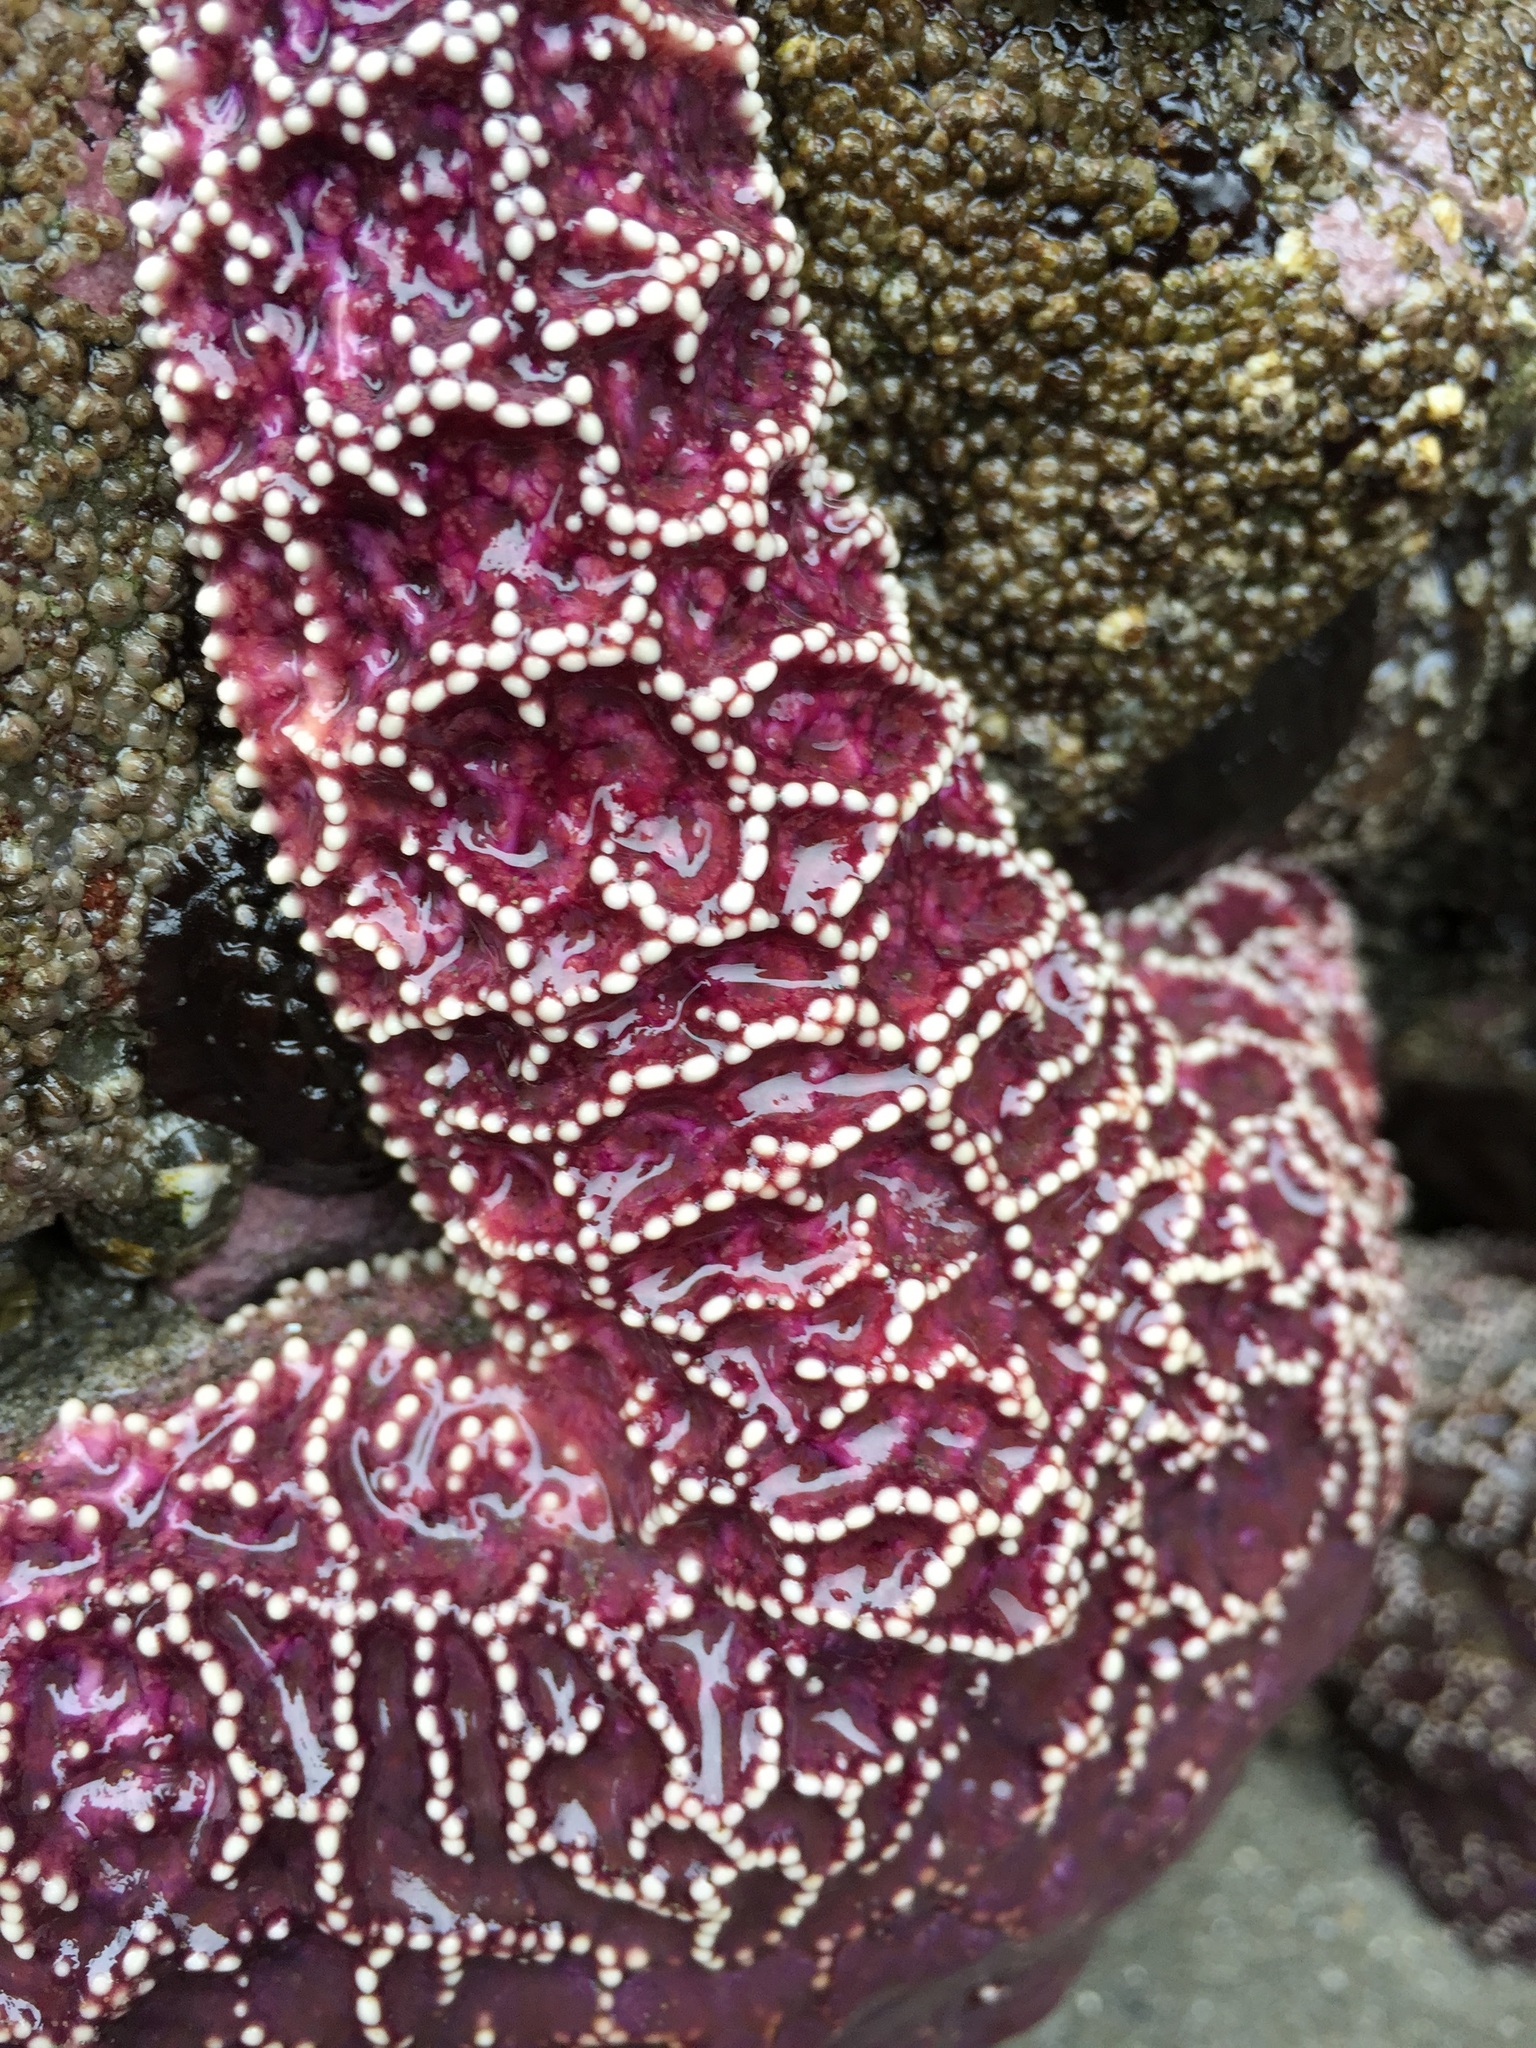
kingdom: Animalia
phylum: Echinodermata
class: Asteroidea
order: Forcipulatida
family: Asteriidae
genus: Pisaster
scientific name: Pisaster ochraceus
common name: Ochre stars
